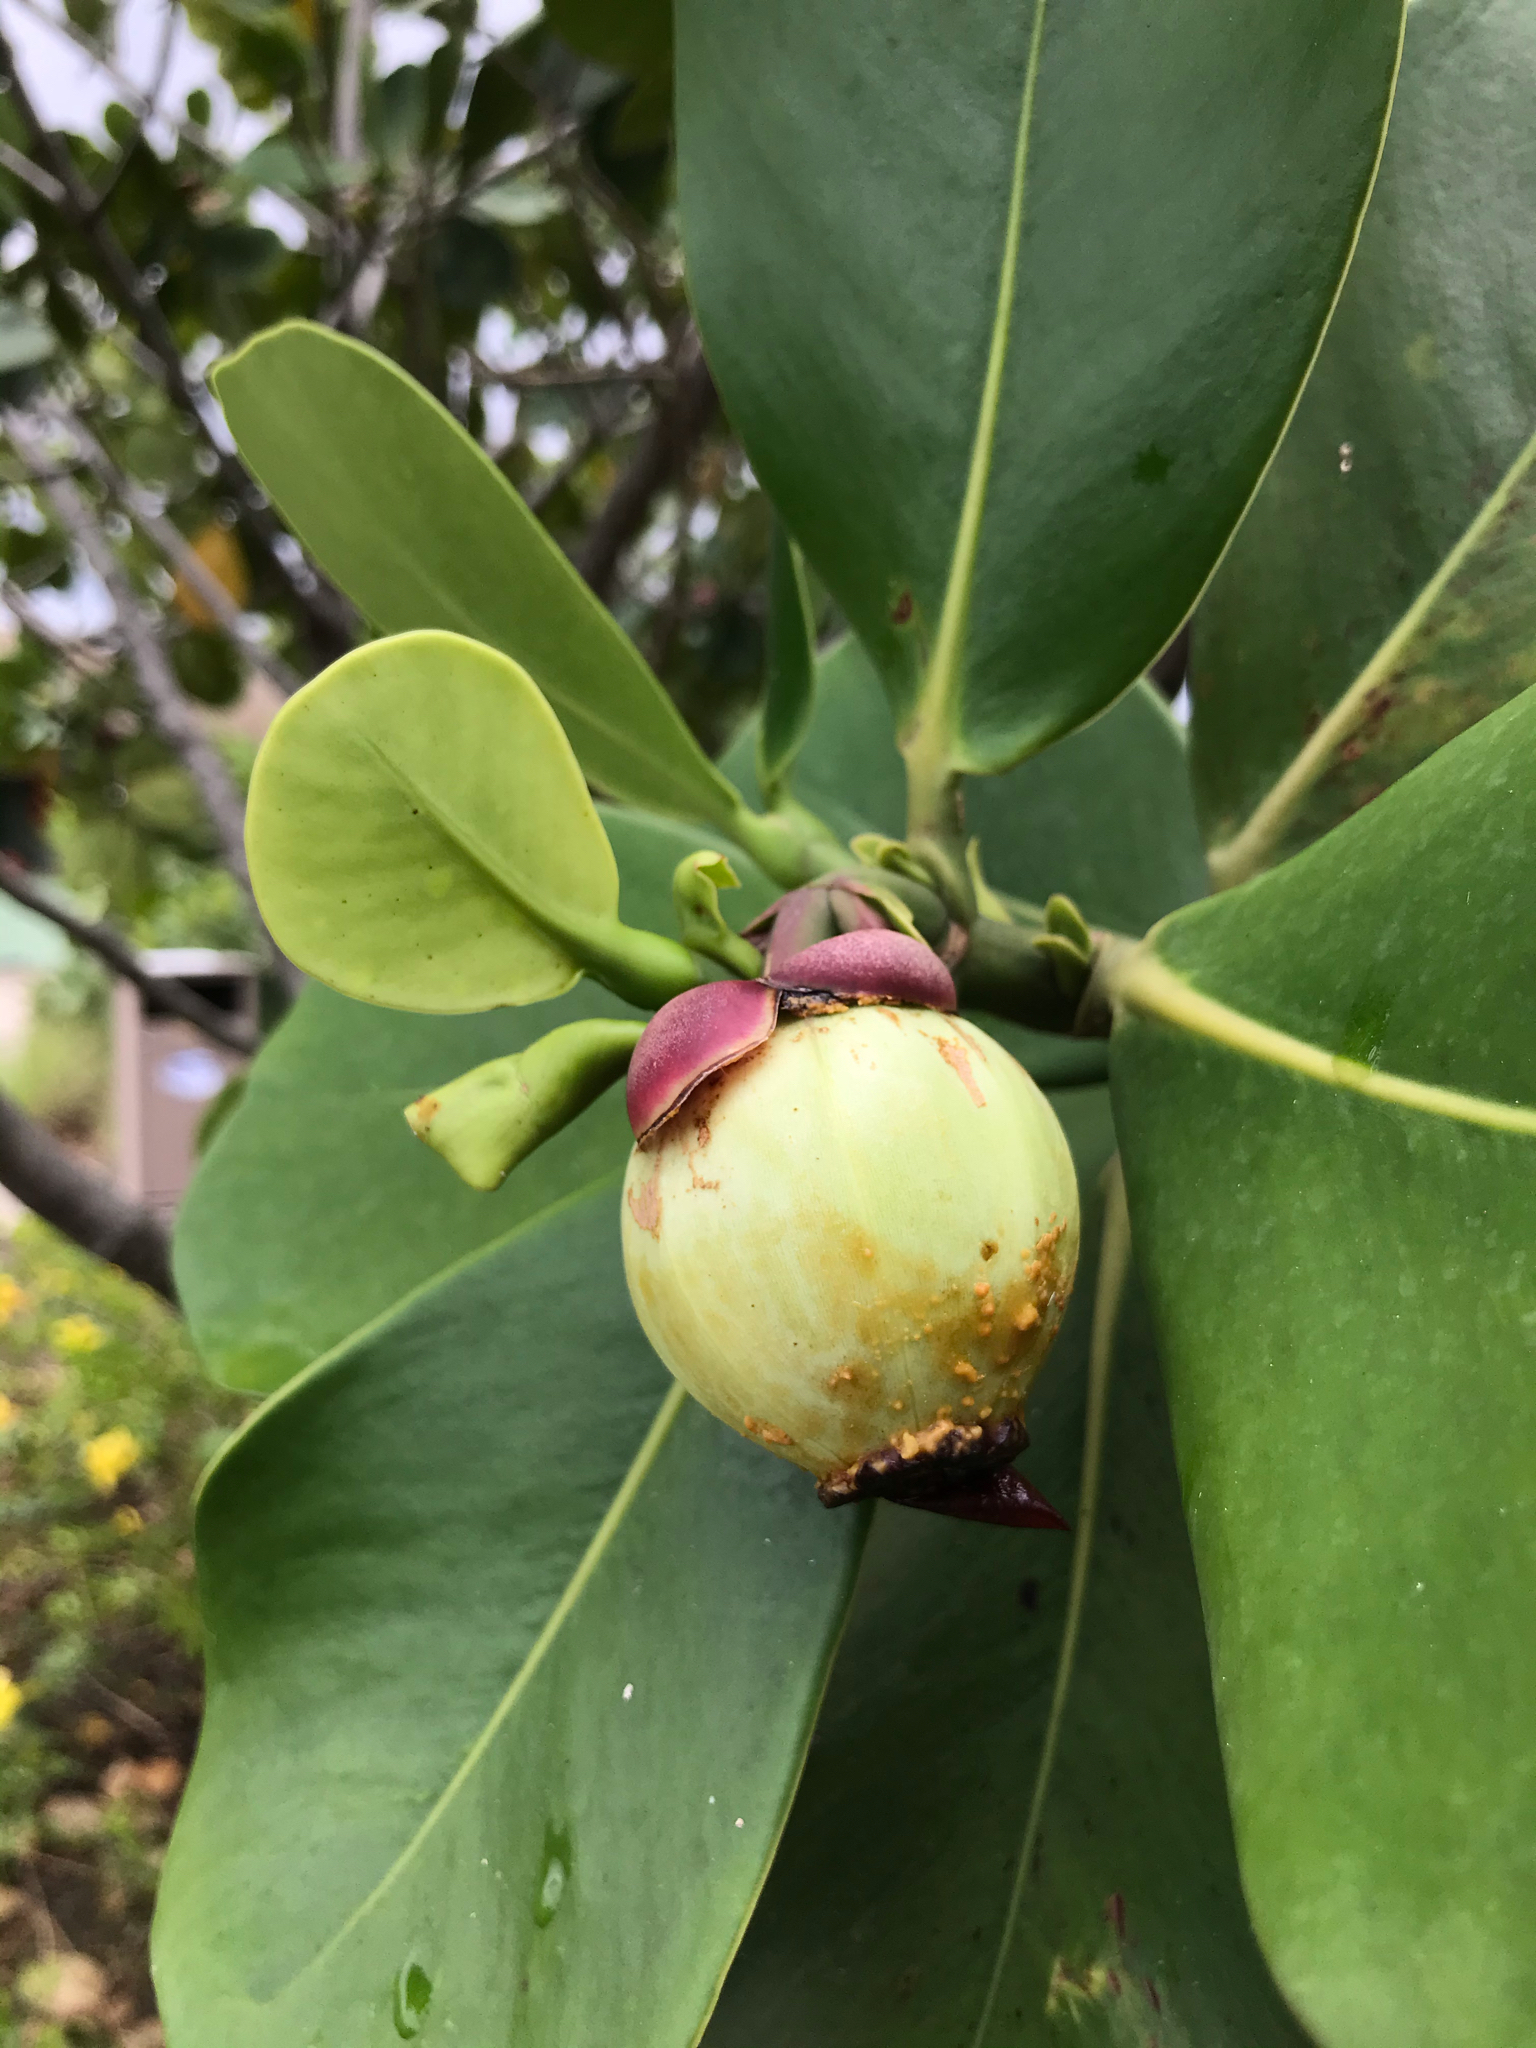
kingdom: Plantae
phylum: Tracheophyta
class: Magnoliopsida
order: Malpighiales
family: Clusiaceae
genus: Clusia
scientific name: Clusia rosea
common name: Scotch attorney
